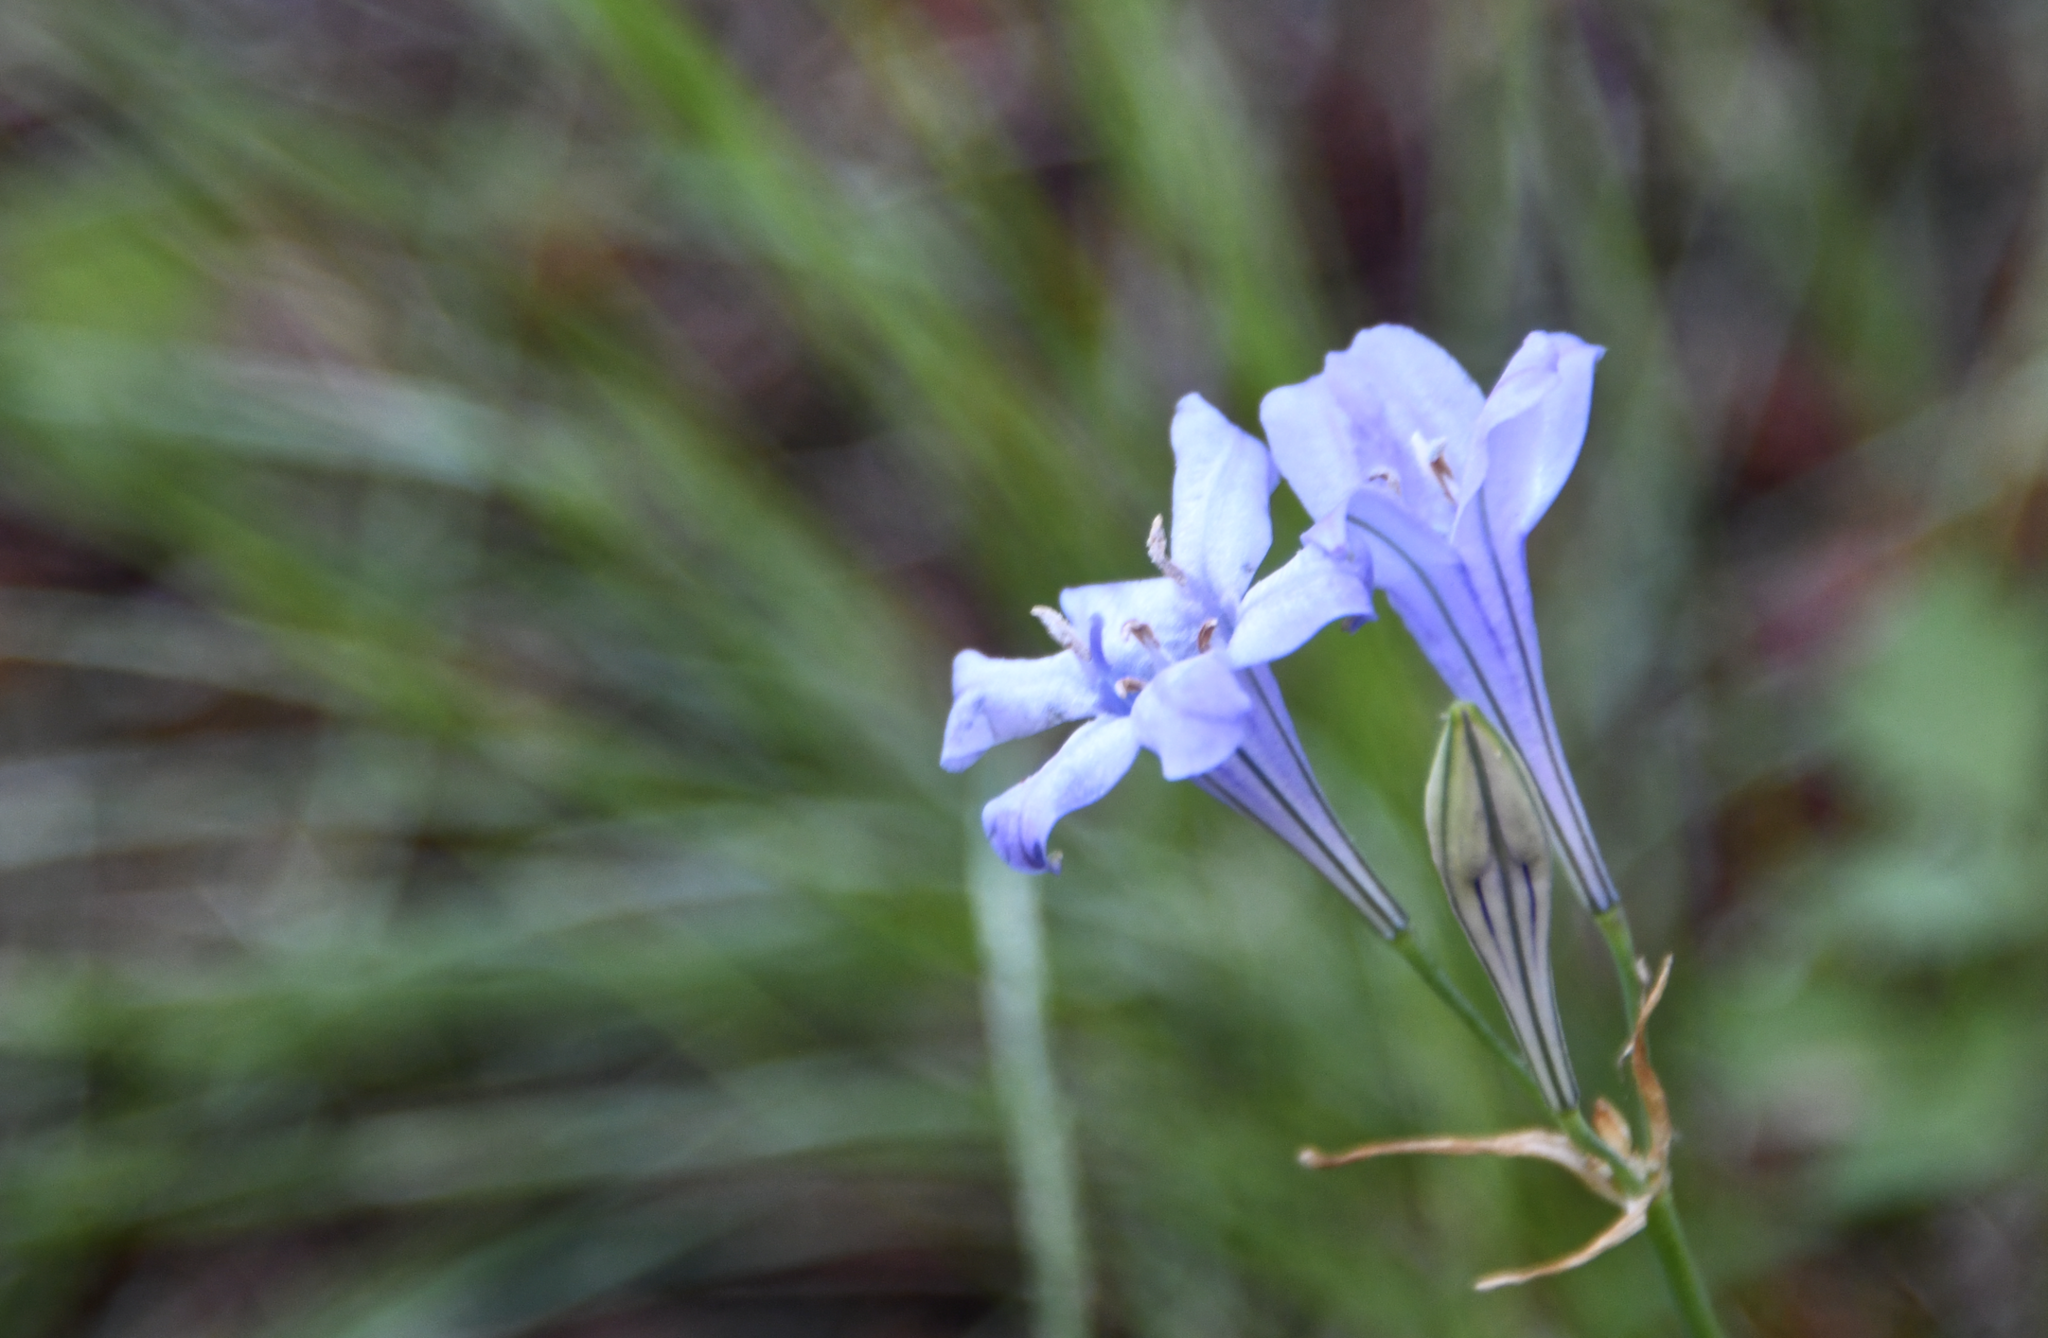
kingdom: Plantae
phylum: Tracheophyta
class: Liliopsida
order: Asparagales
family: Asparagaceae
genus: Triteleia
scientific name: Triteleia laxa
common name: Triplet-lily
